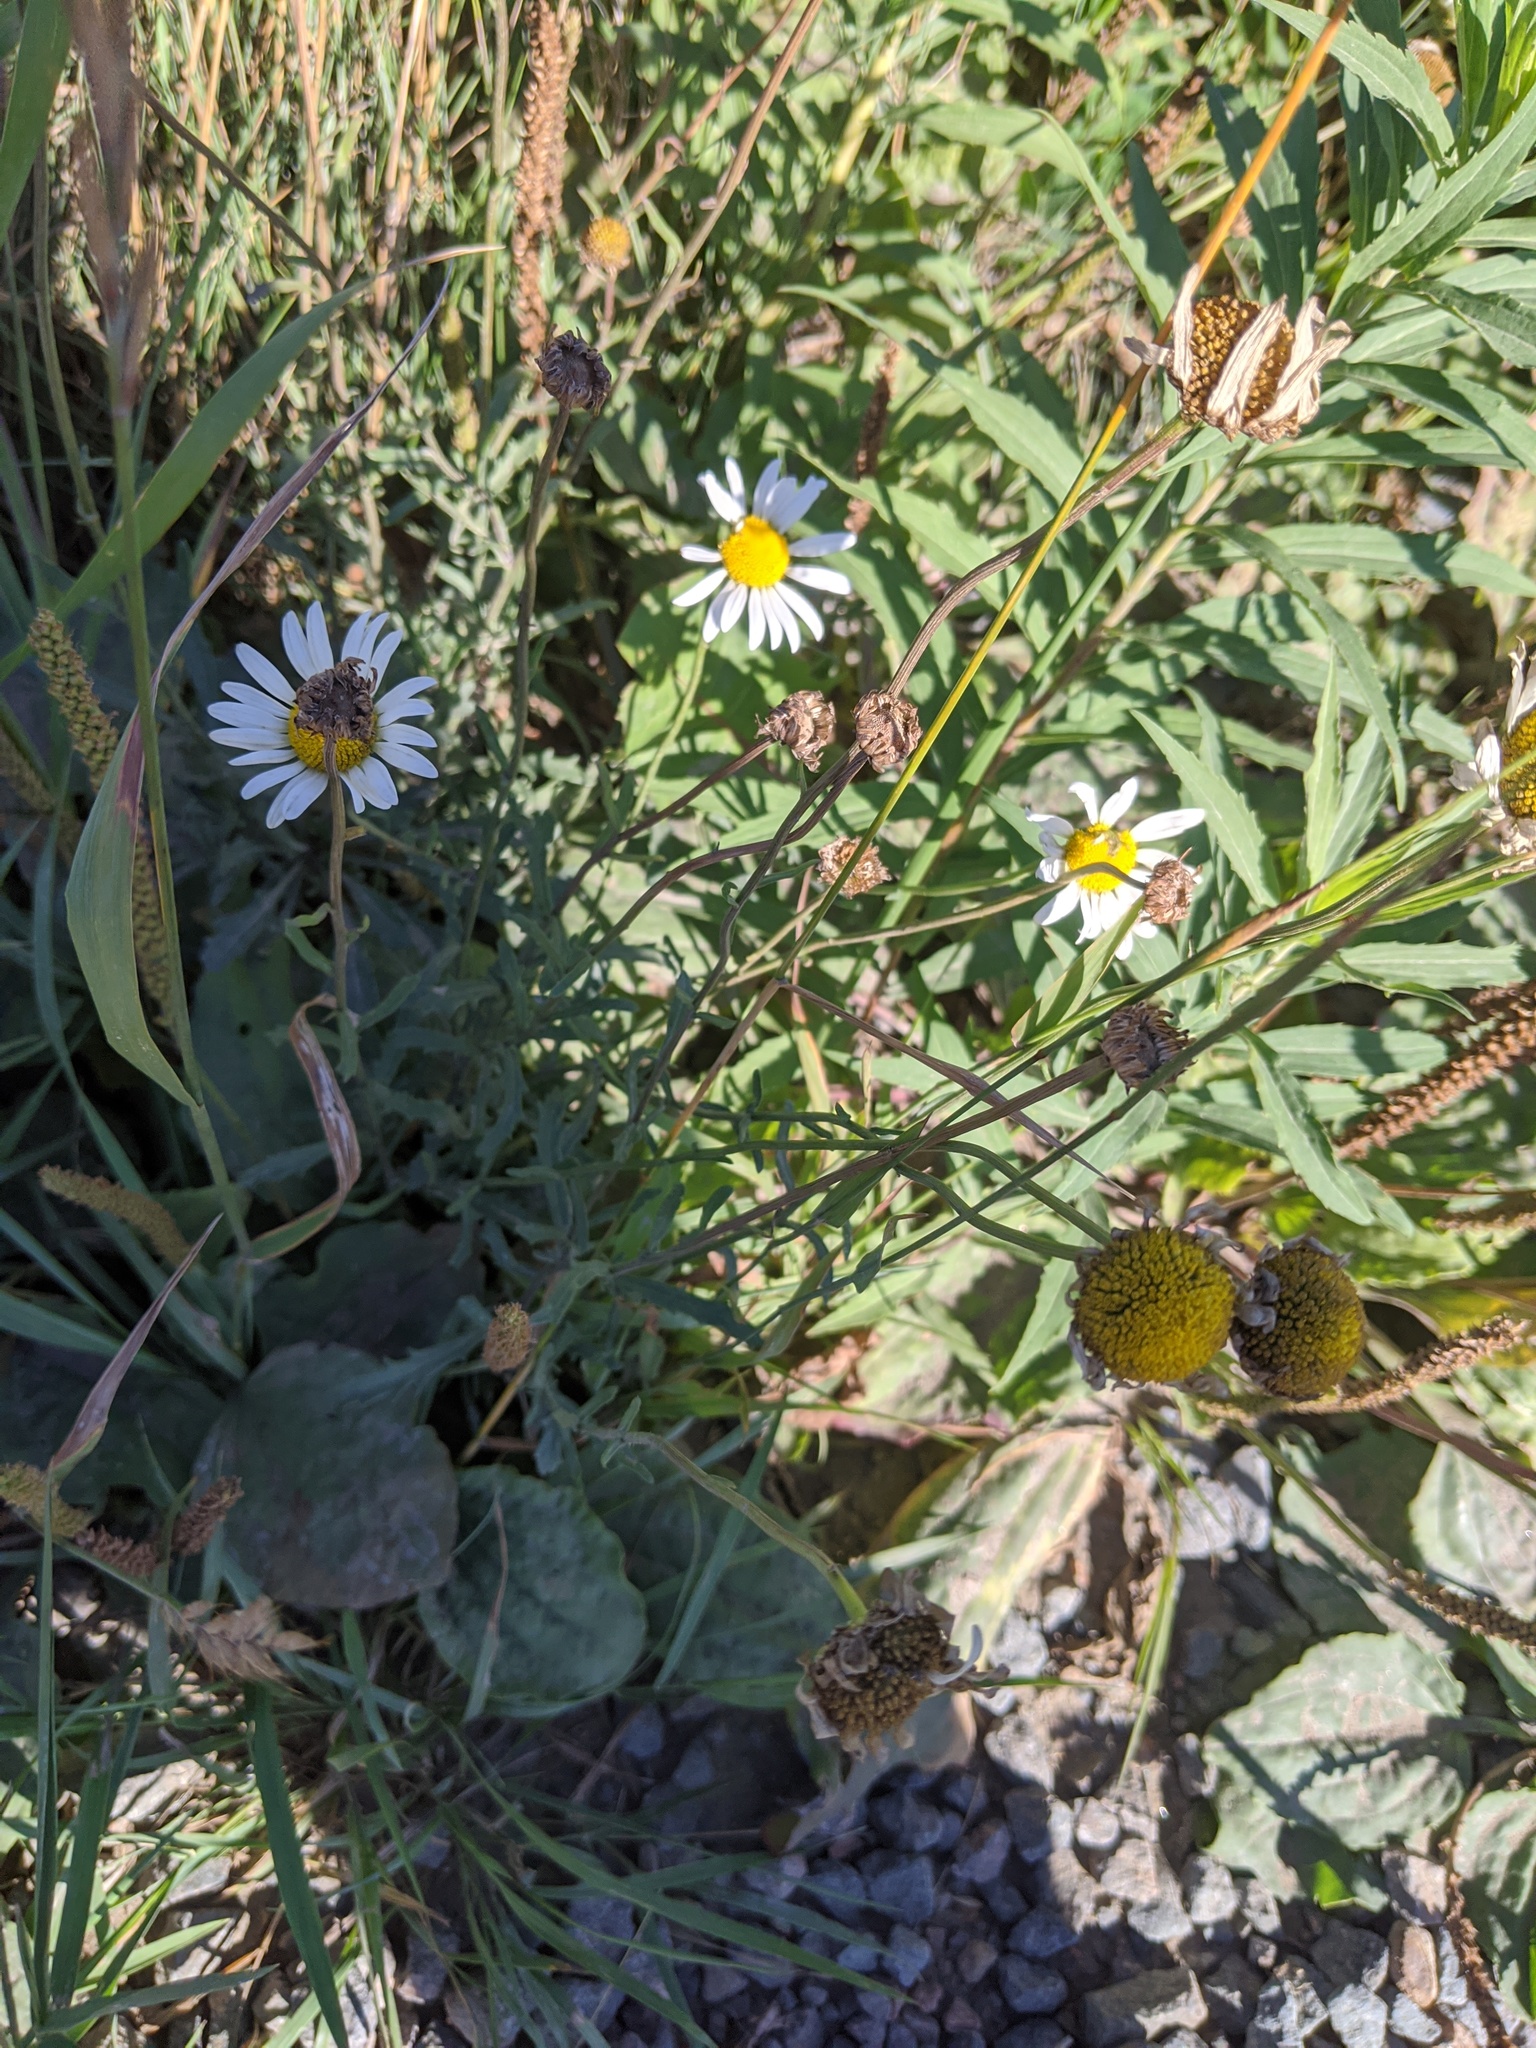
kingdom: Plantae
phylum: Tracheophyta
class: Magnoliopsida
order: Asterales
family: Asteraceae
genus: Leucanthemum
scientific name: Leucanthemum vulgare
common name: Oxeye daisy
